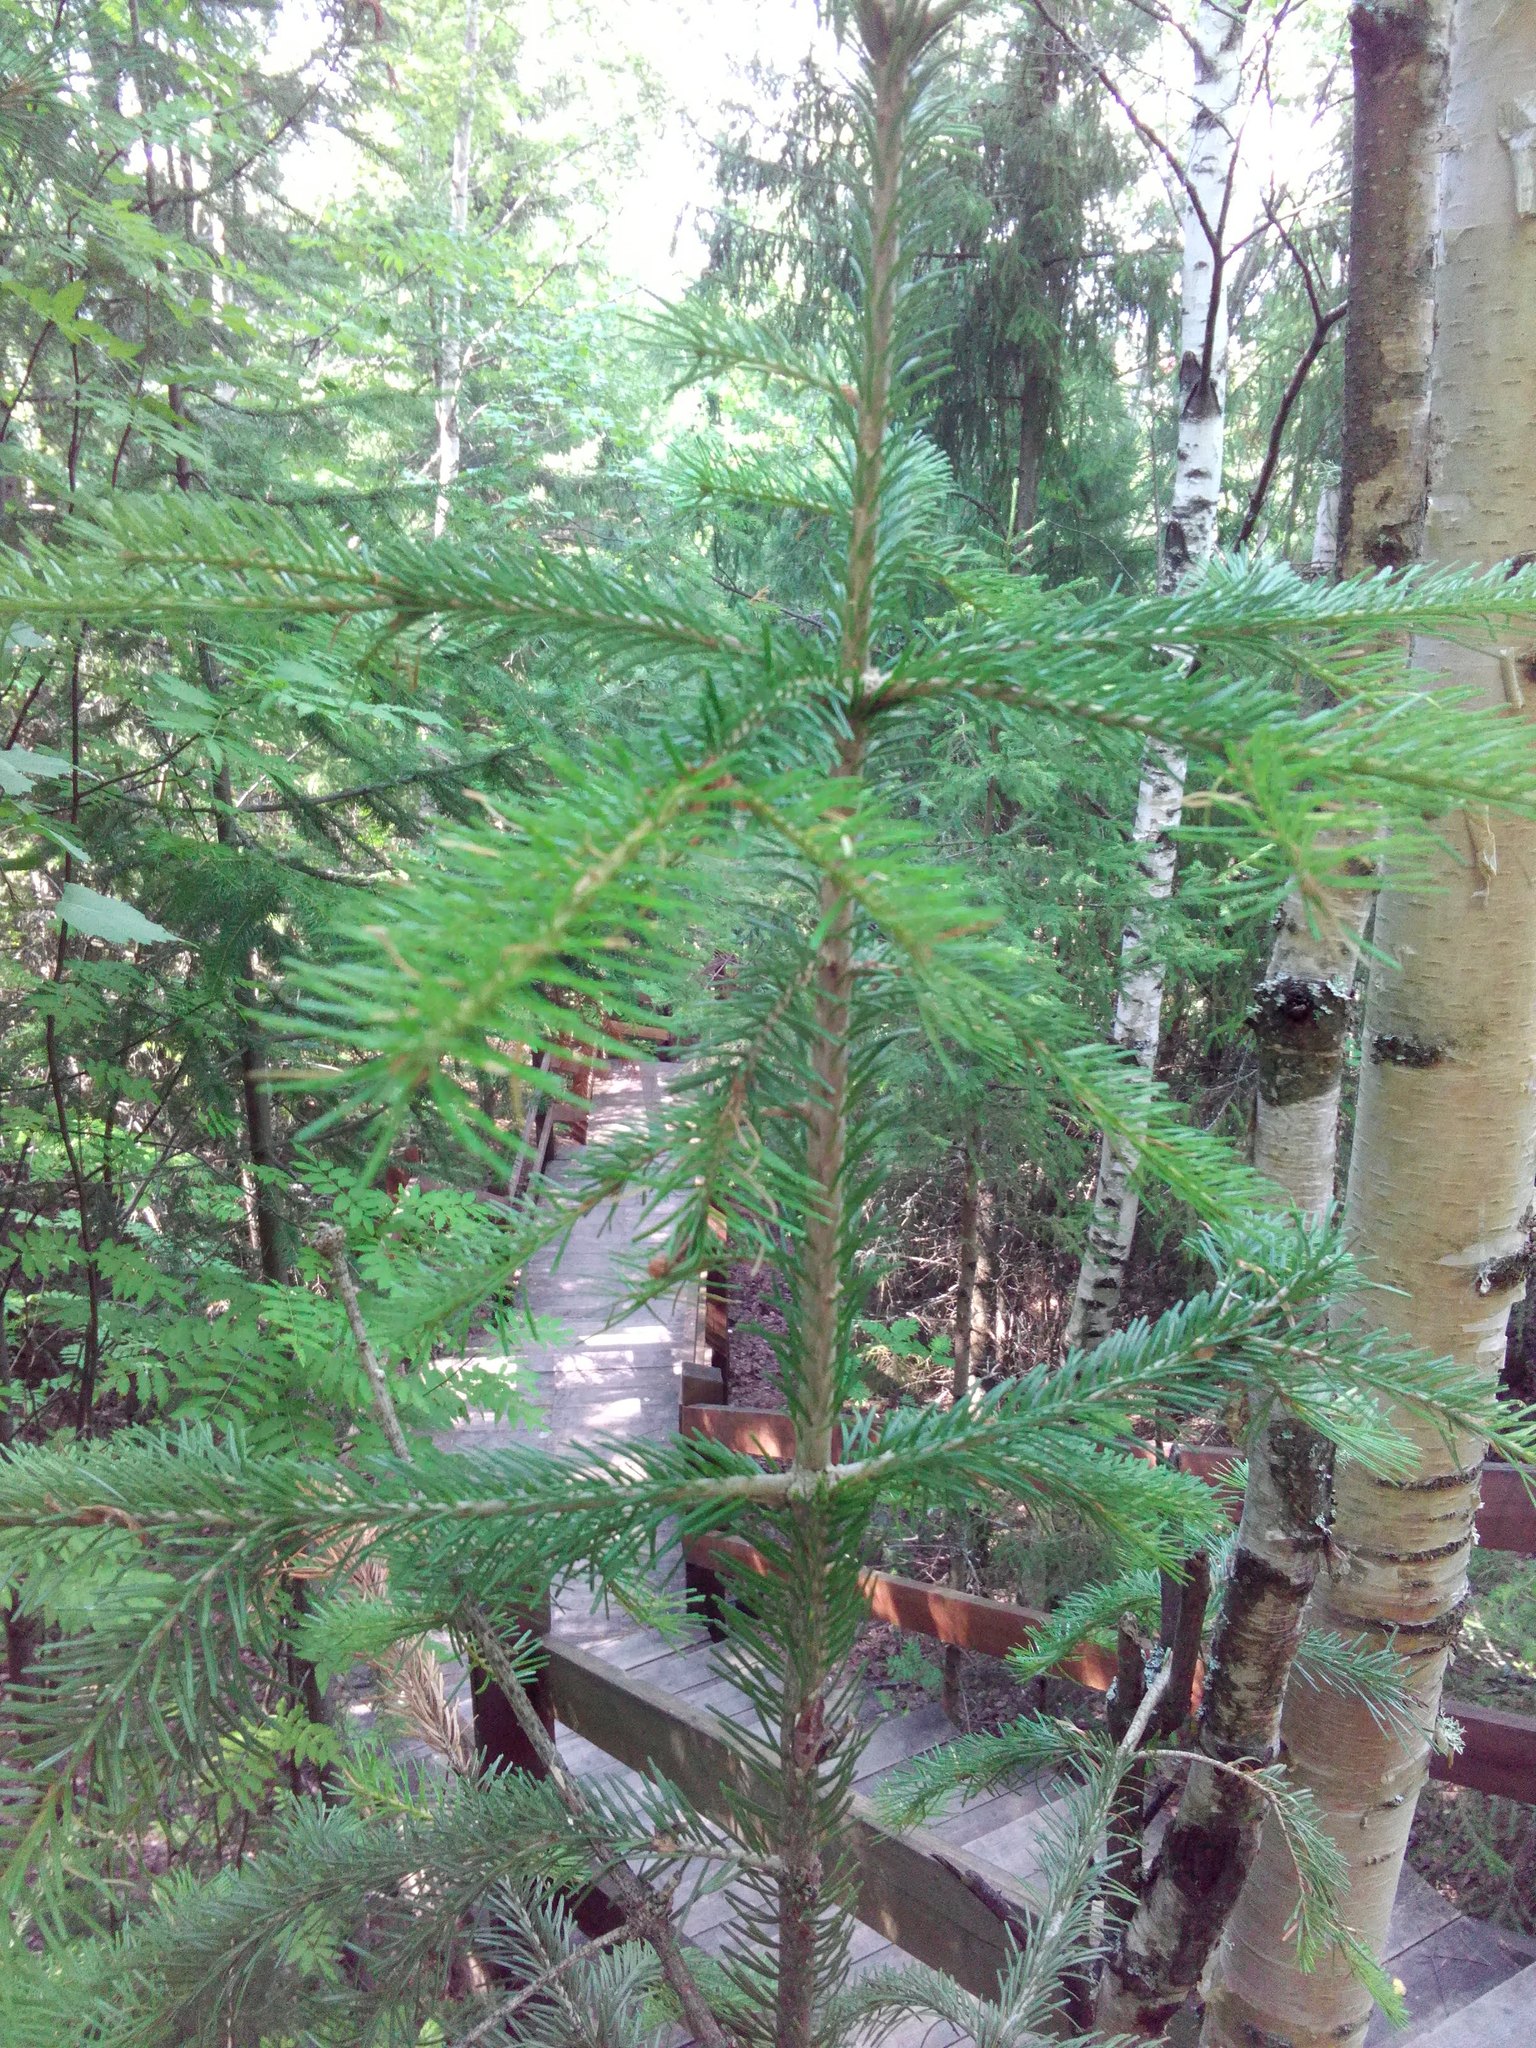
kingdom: Plantae
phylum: Tracheophyta
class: Pinopsida
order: Pinales
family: Pinaceae
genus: Abies
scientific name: Abies sibirica
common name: Siberian fir
